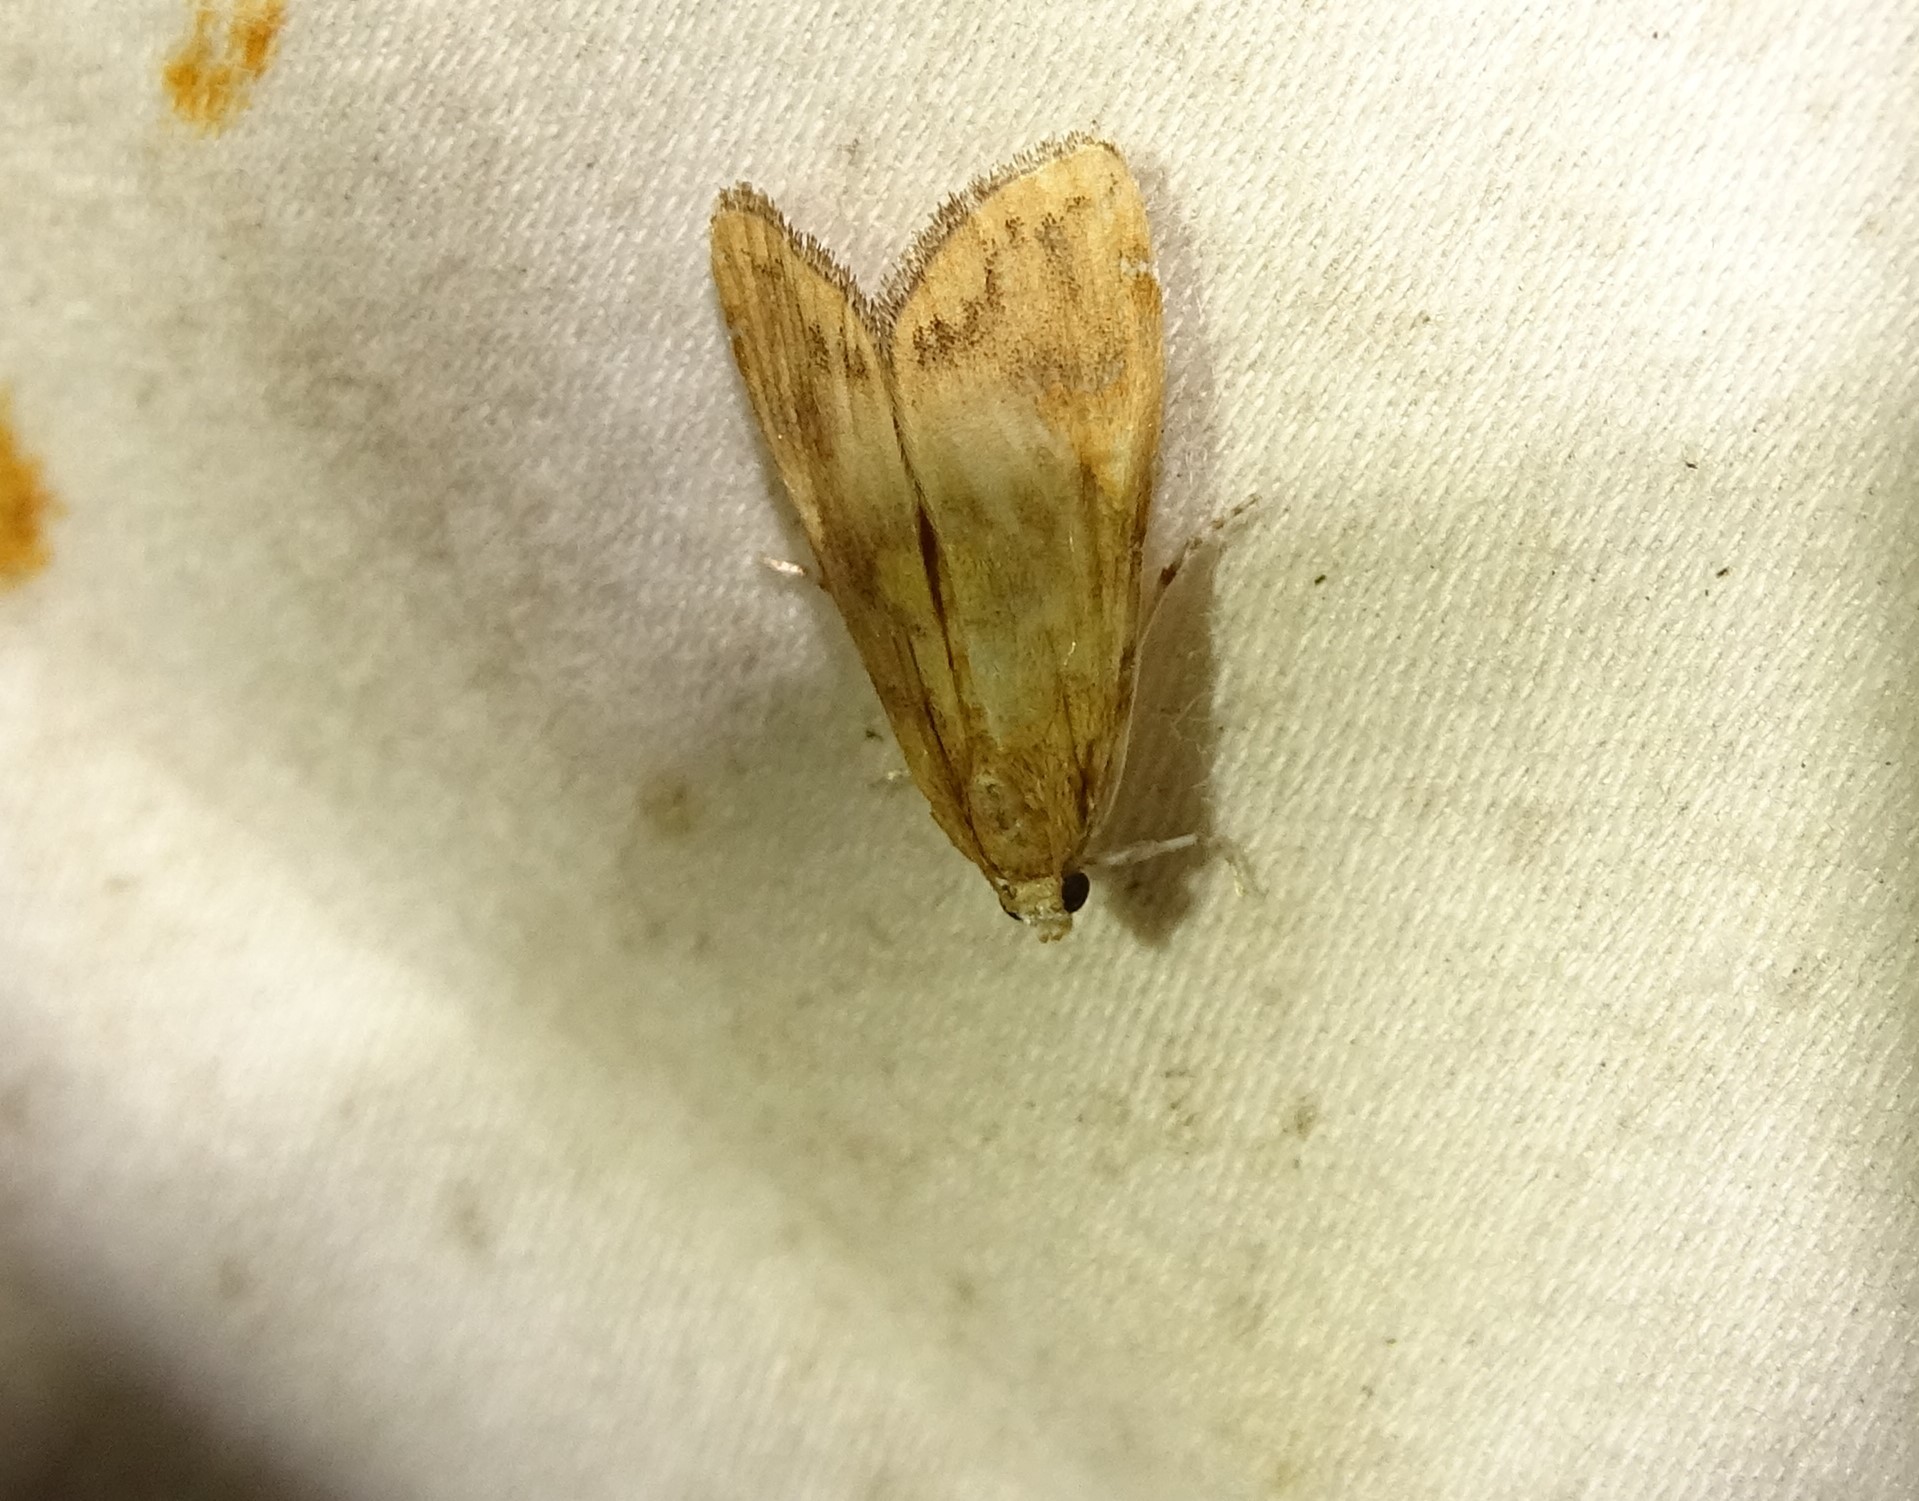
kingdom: Animalia
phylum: Arthropoda
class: Insecta
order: Lepidoptera
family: Crambidae
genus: Elophila
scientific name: Elophila gyralis
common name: Waterlily borer moth
